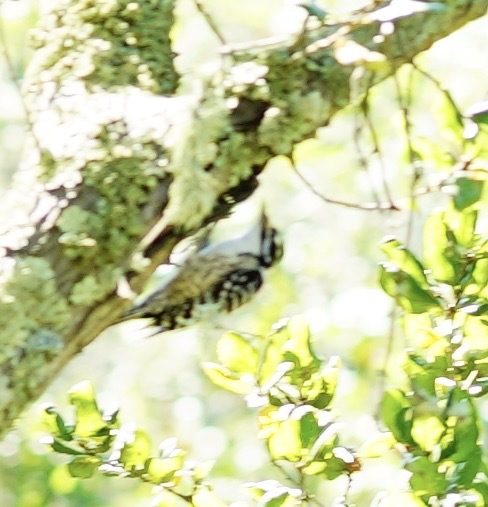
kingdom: Animalia
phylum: Chordata
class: Aves
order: Piciformes
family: Picidae
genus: Dryobates
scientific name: Dryobates nuttallii
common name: Nuttall's woodpecker
